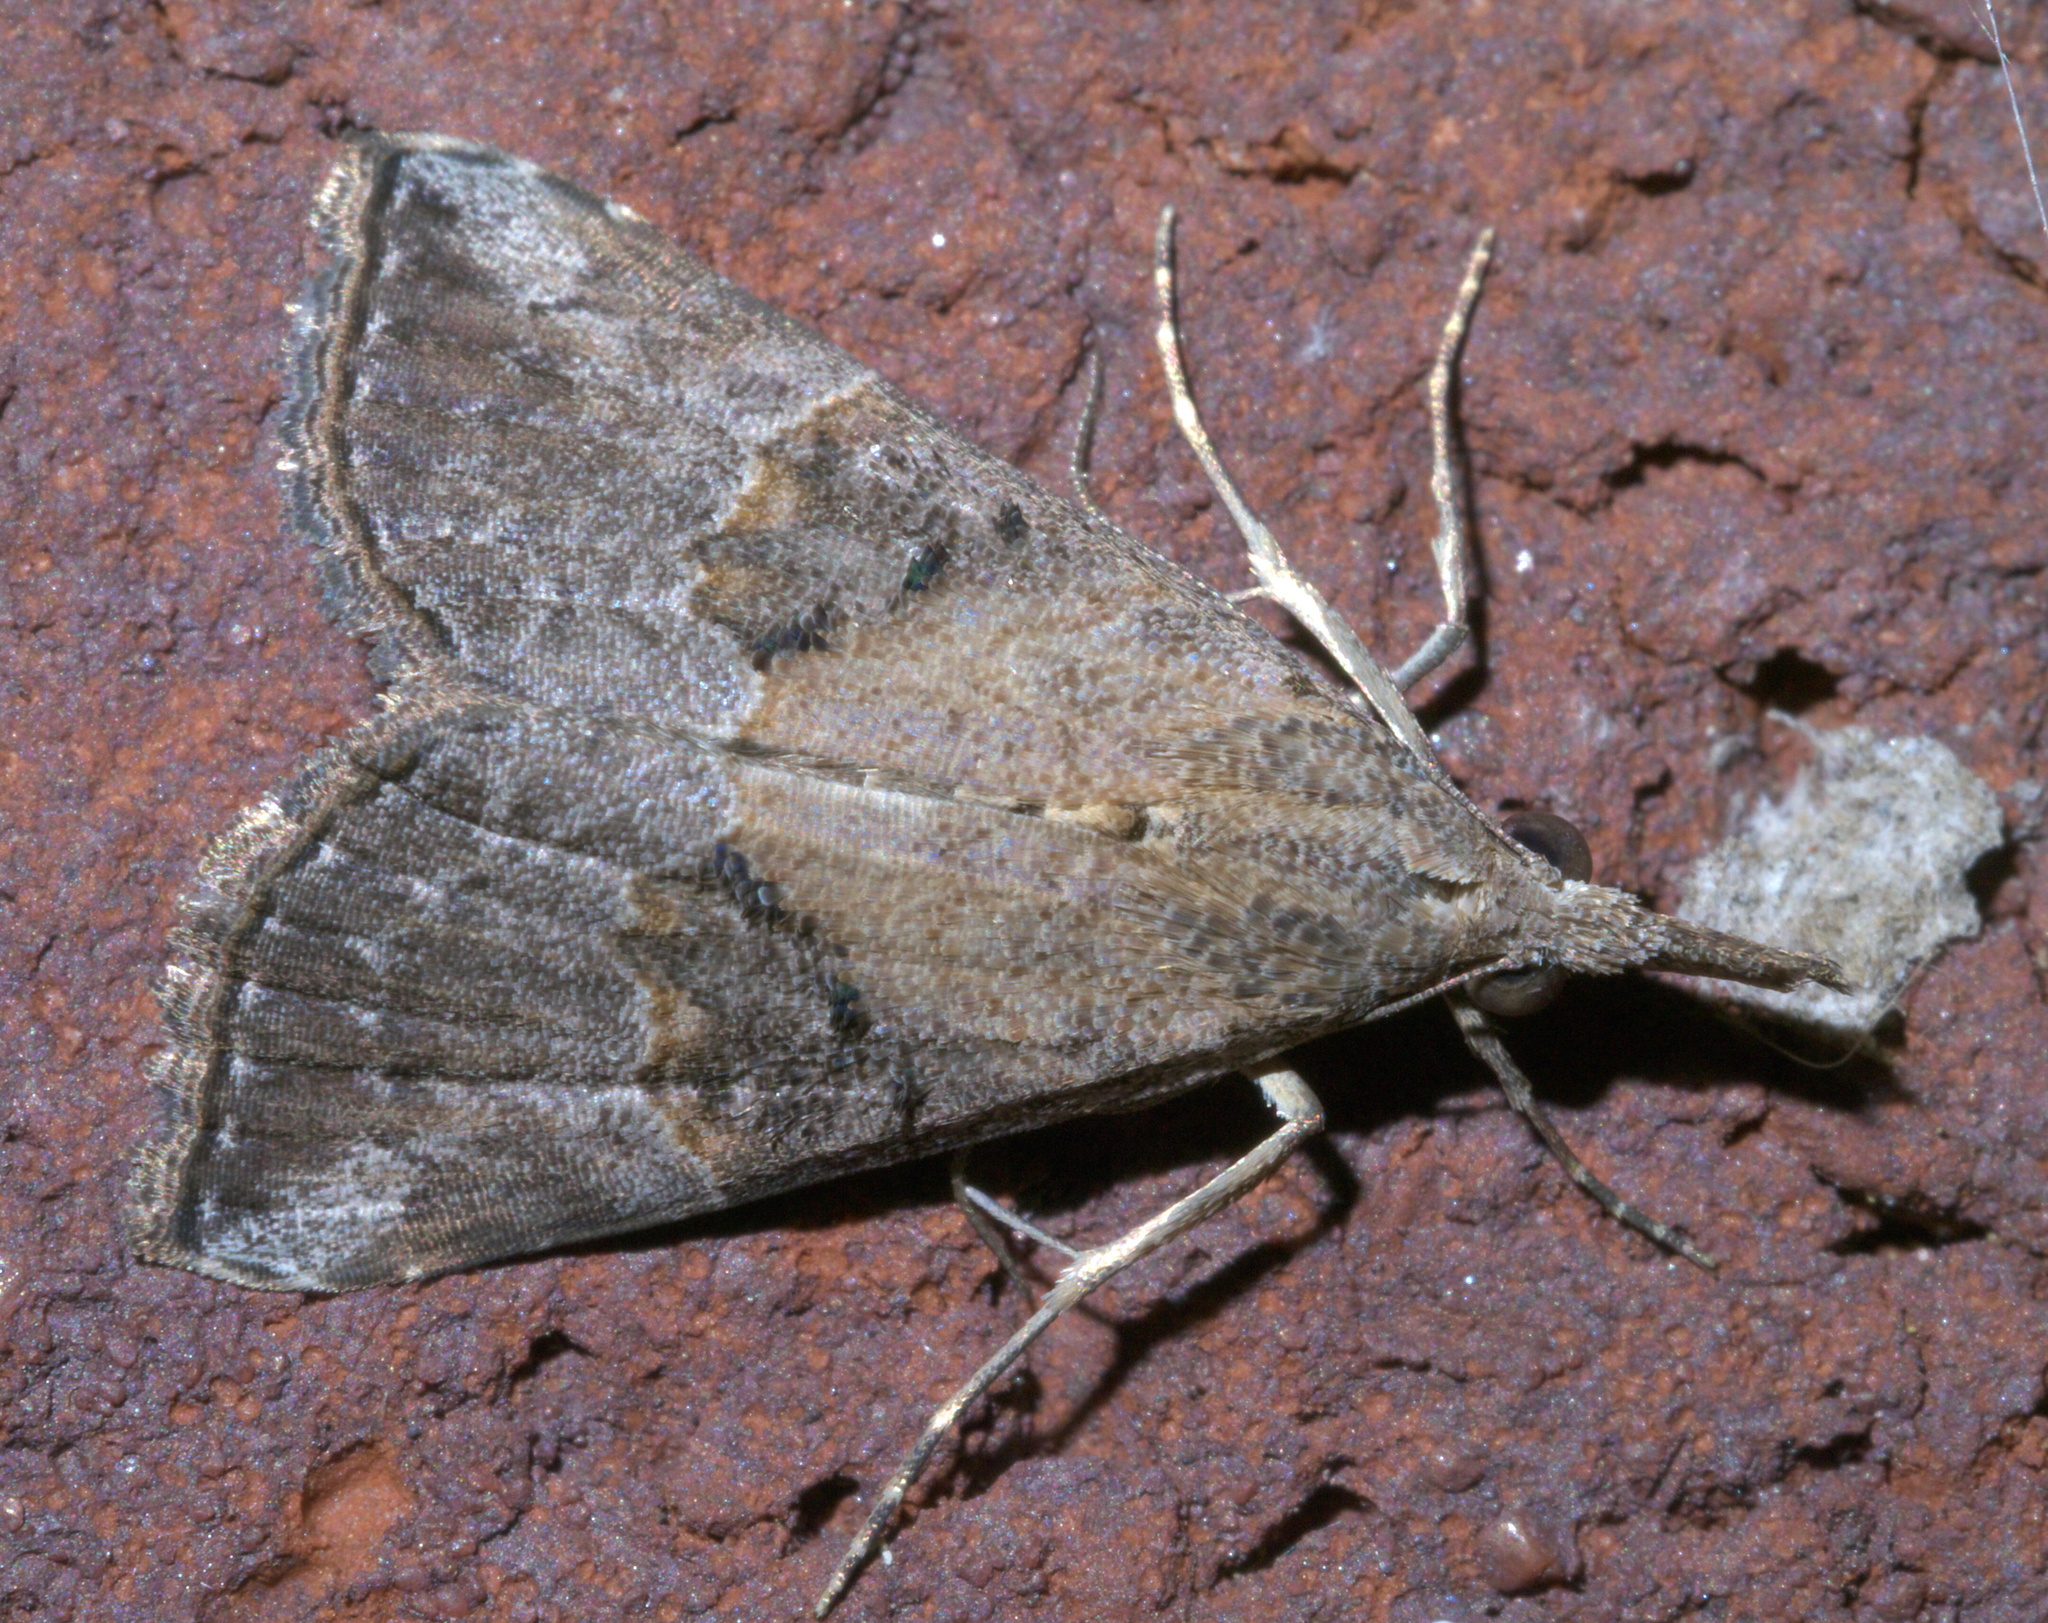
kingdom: Animalia
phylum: Arthropoda
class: Insecta
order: Lepidoptera
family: Erebidae
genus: Hypena
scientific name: Hypena minualis
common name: Sooty snout
